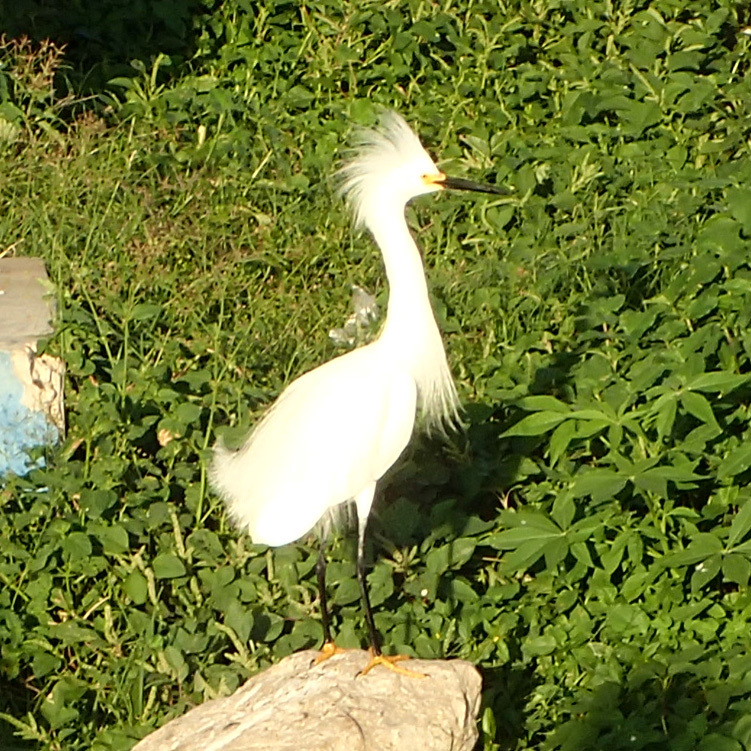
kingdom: Animalia
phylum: Chordata
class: Aves
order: Pelecaniformes
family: Ardeidae
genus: Egretta
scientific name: Egretta thula
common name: Snowy egret
